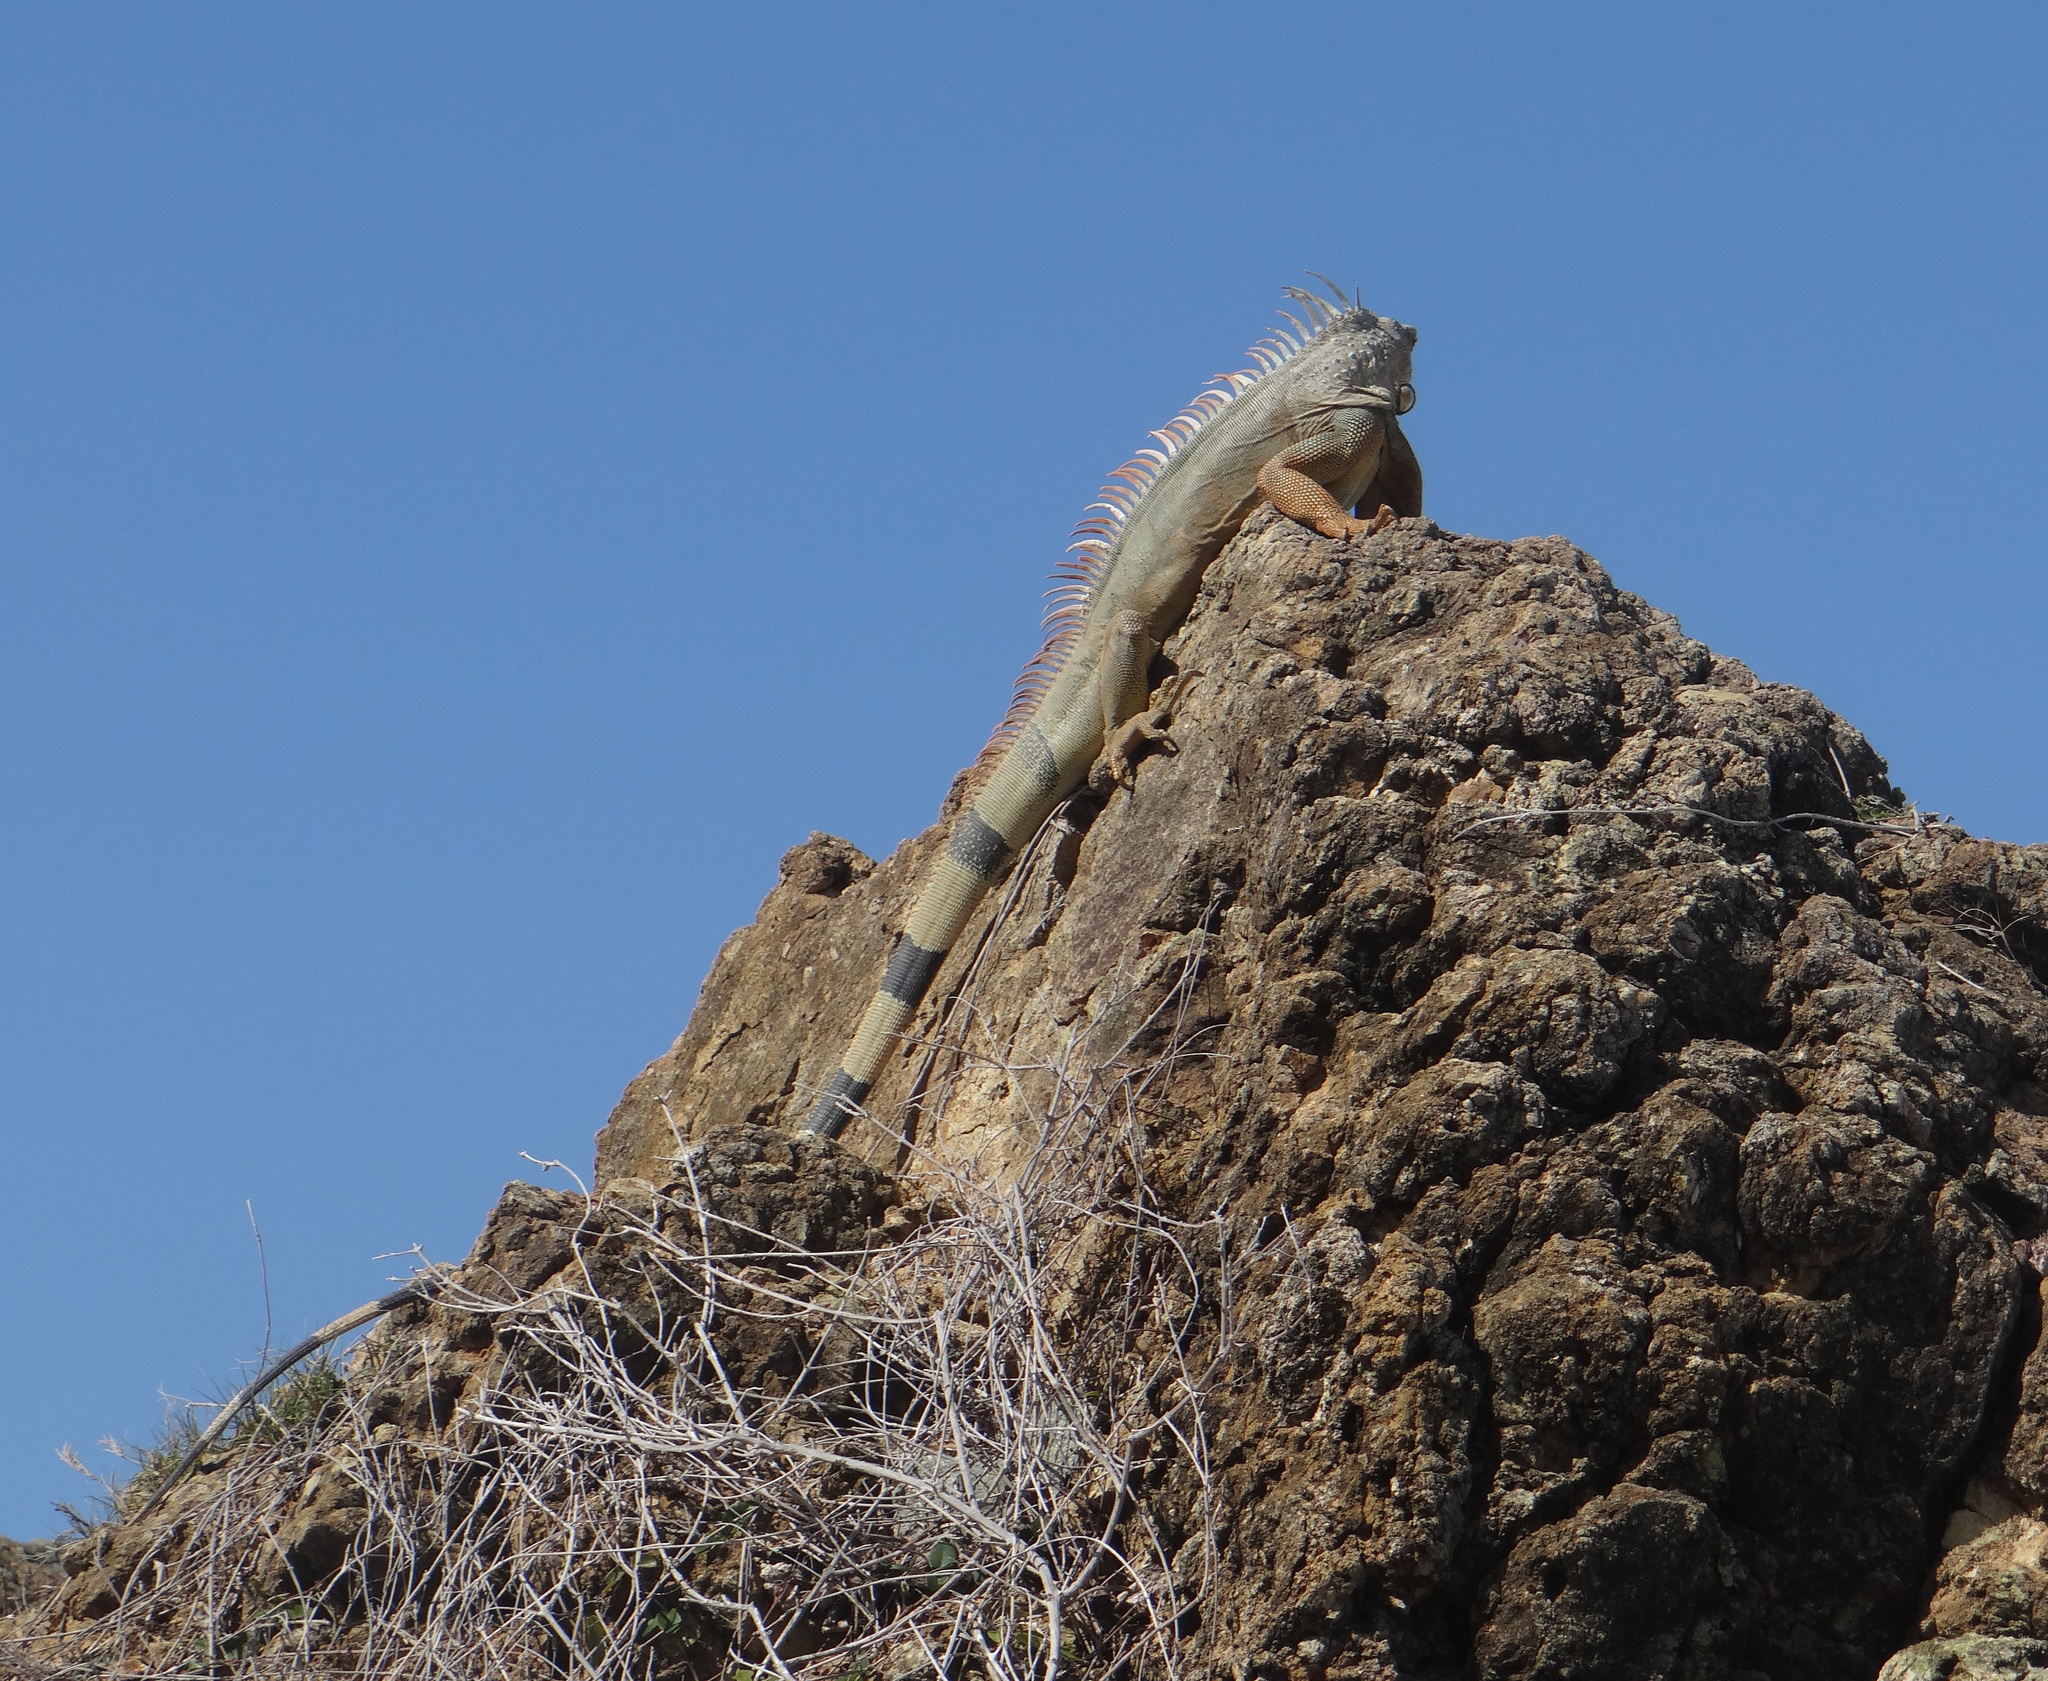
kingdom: Animalia
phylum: Chordata
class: Squamata
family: Iguanidae
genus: Iguana
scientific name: Iguana iguana
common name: Green iguana
